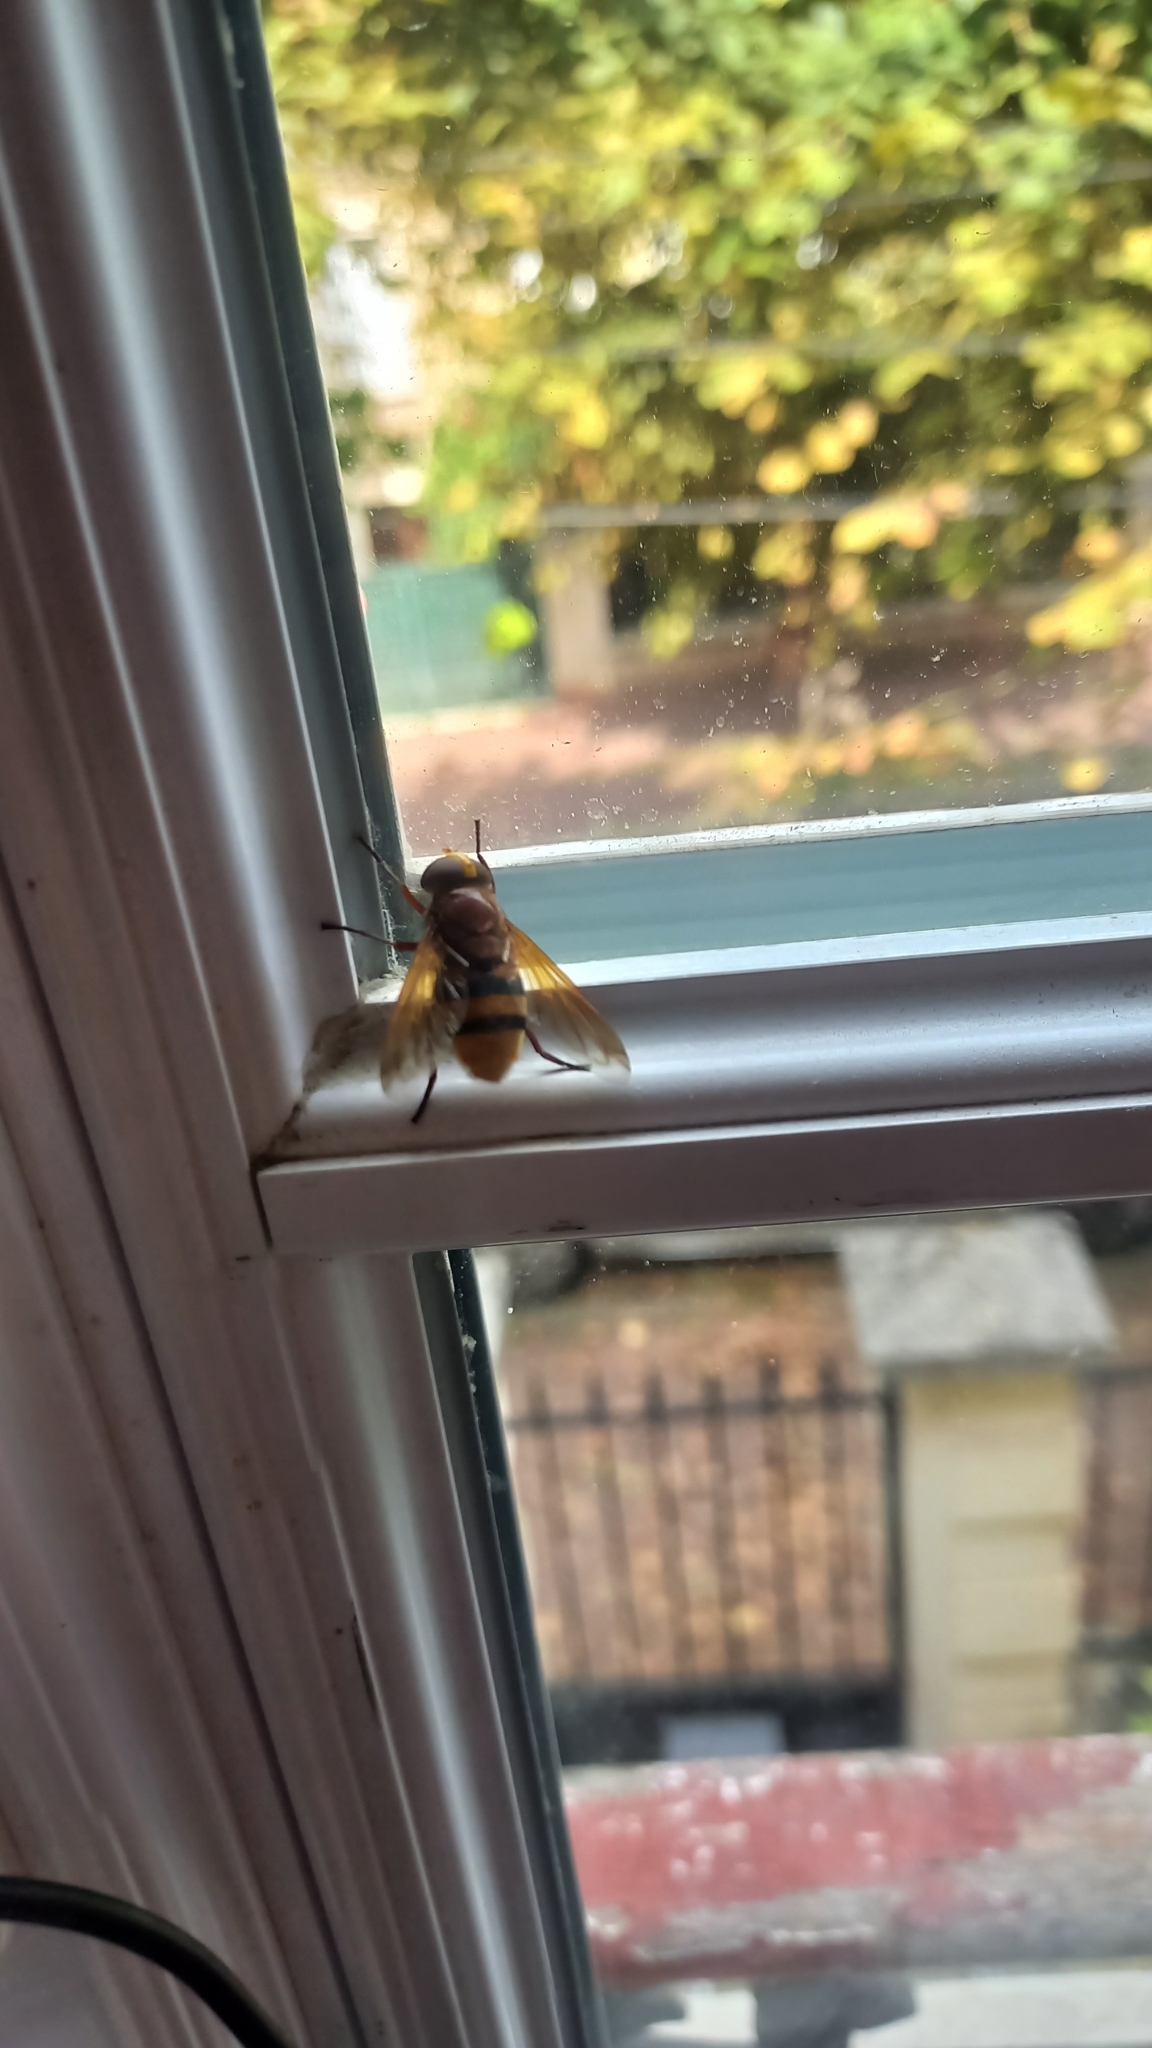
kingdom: Animalia
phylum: Arthropoda
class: Insecta
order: Diptera
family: Syrphidae
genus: Volucella
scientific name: Volucella zonaria
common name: Hornet hoverfly
